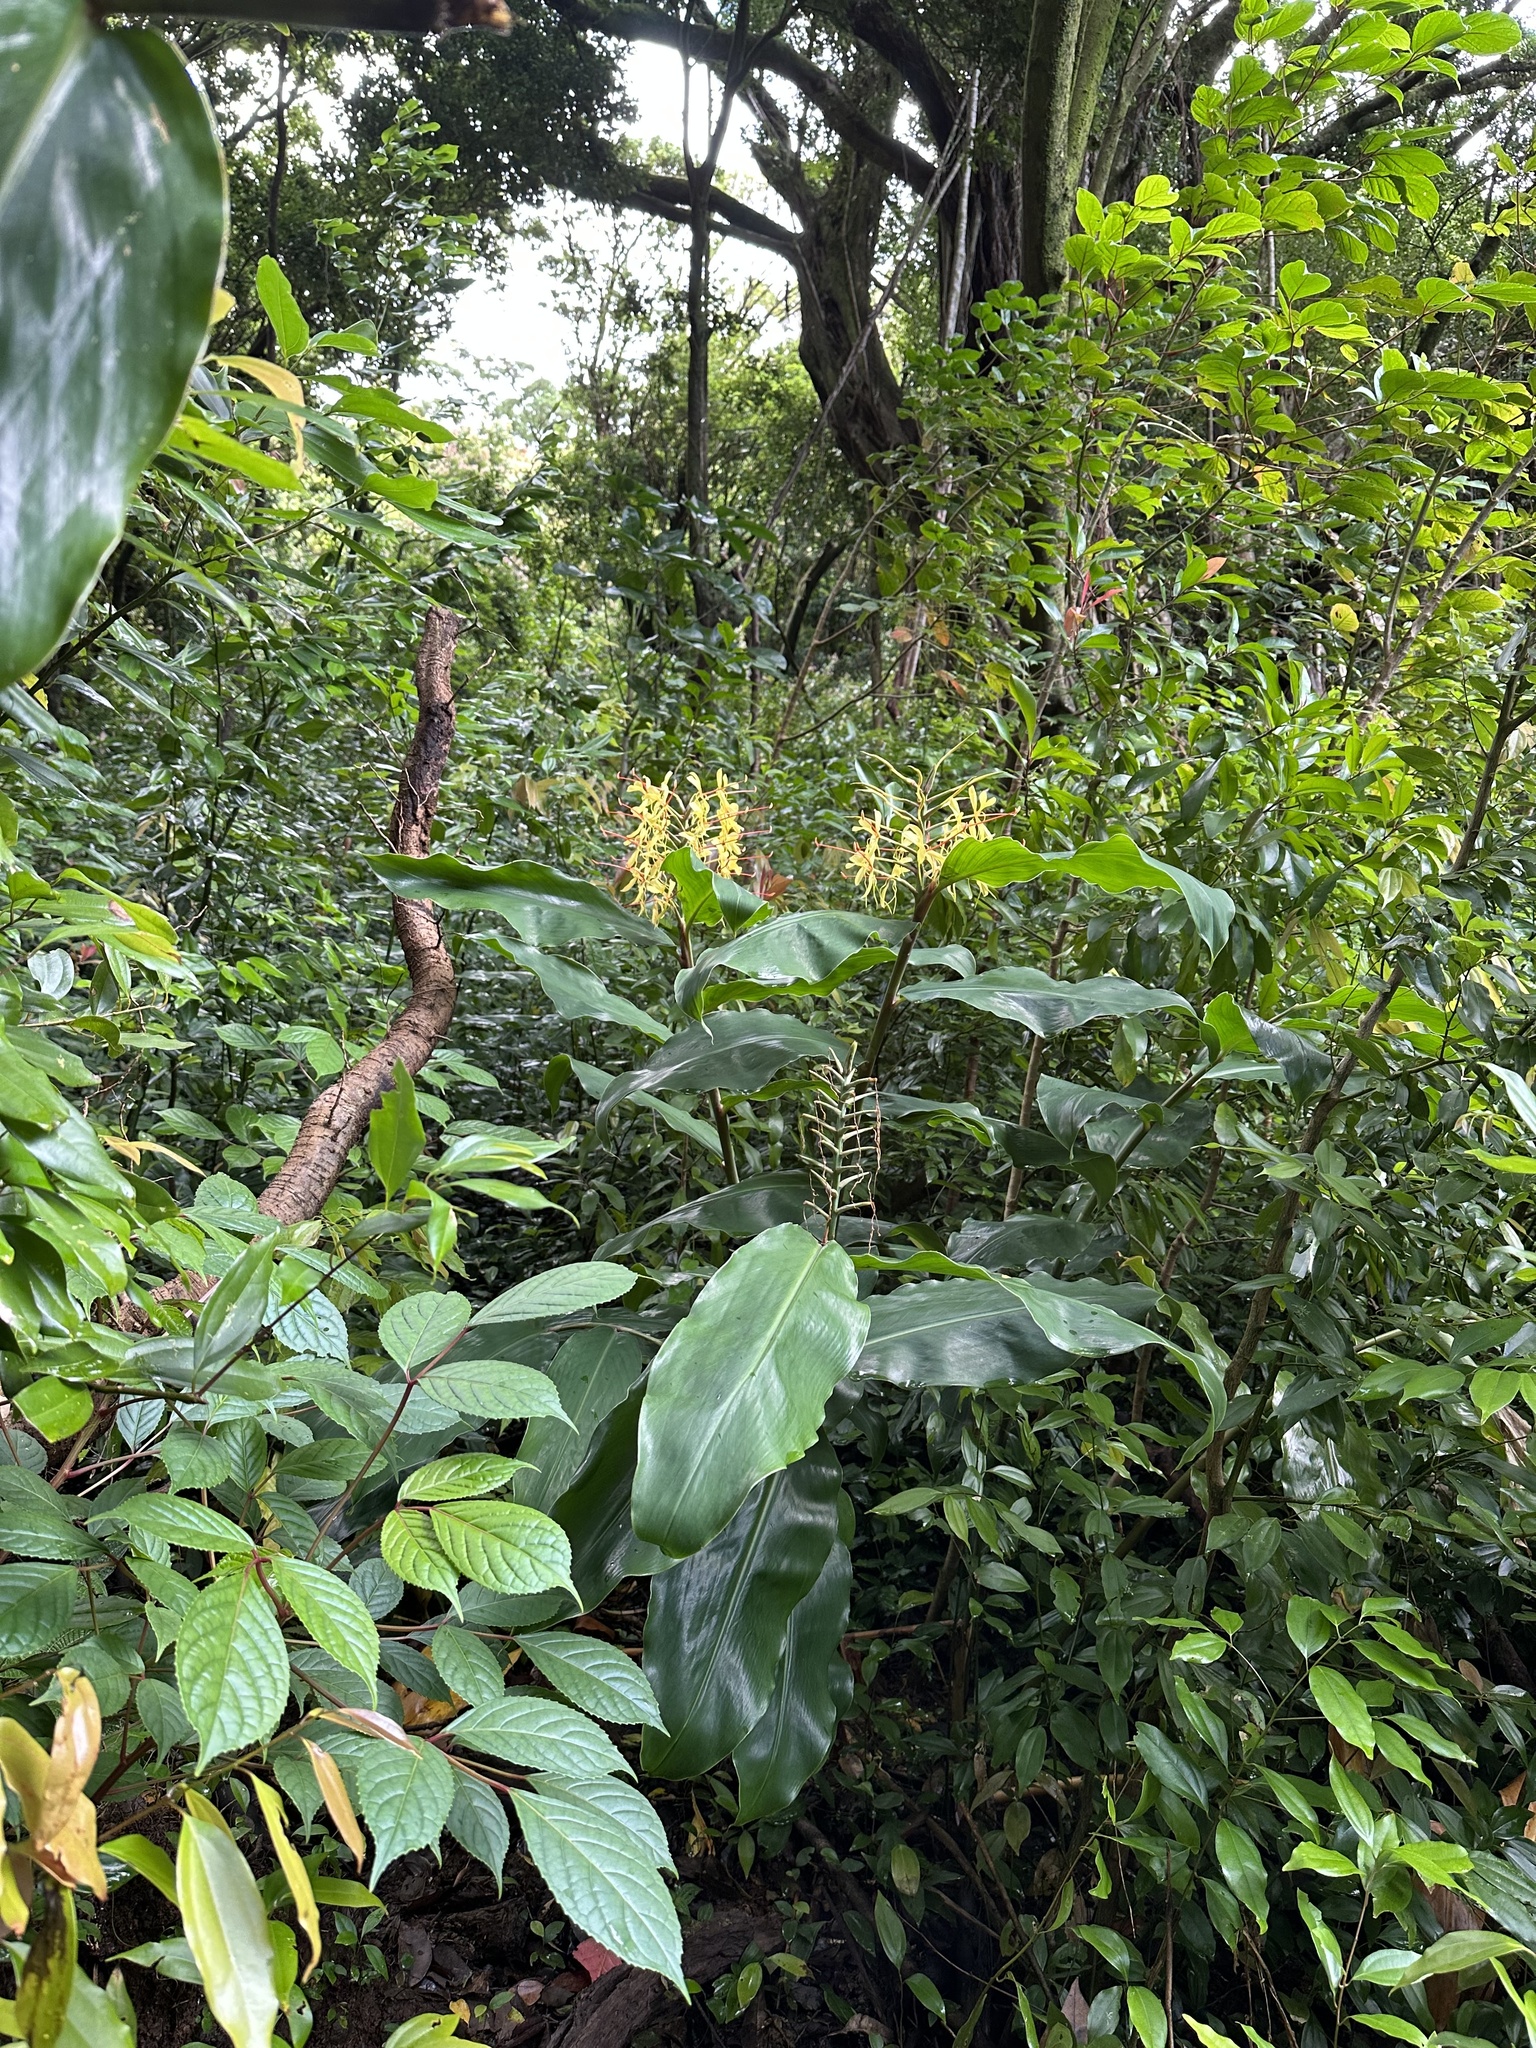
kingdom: Plantae
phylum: Tracheophyta
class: Liliopsida
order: Zingiberales
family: Zingiberaceae
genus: Hedychium
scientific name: Hedychium gardnerianum
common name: Himalayan ginger
